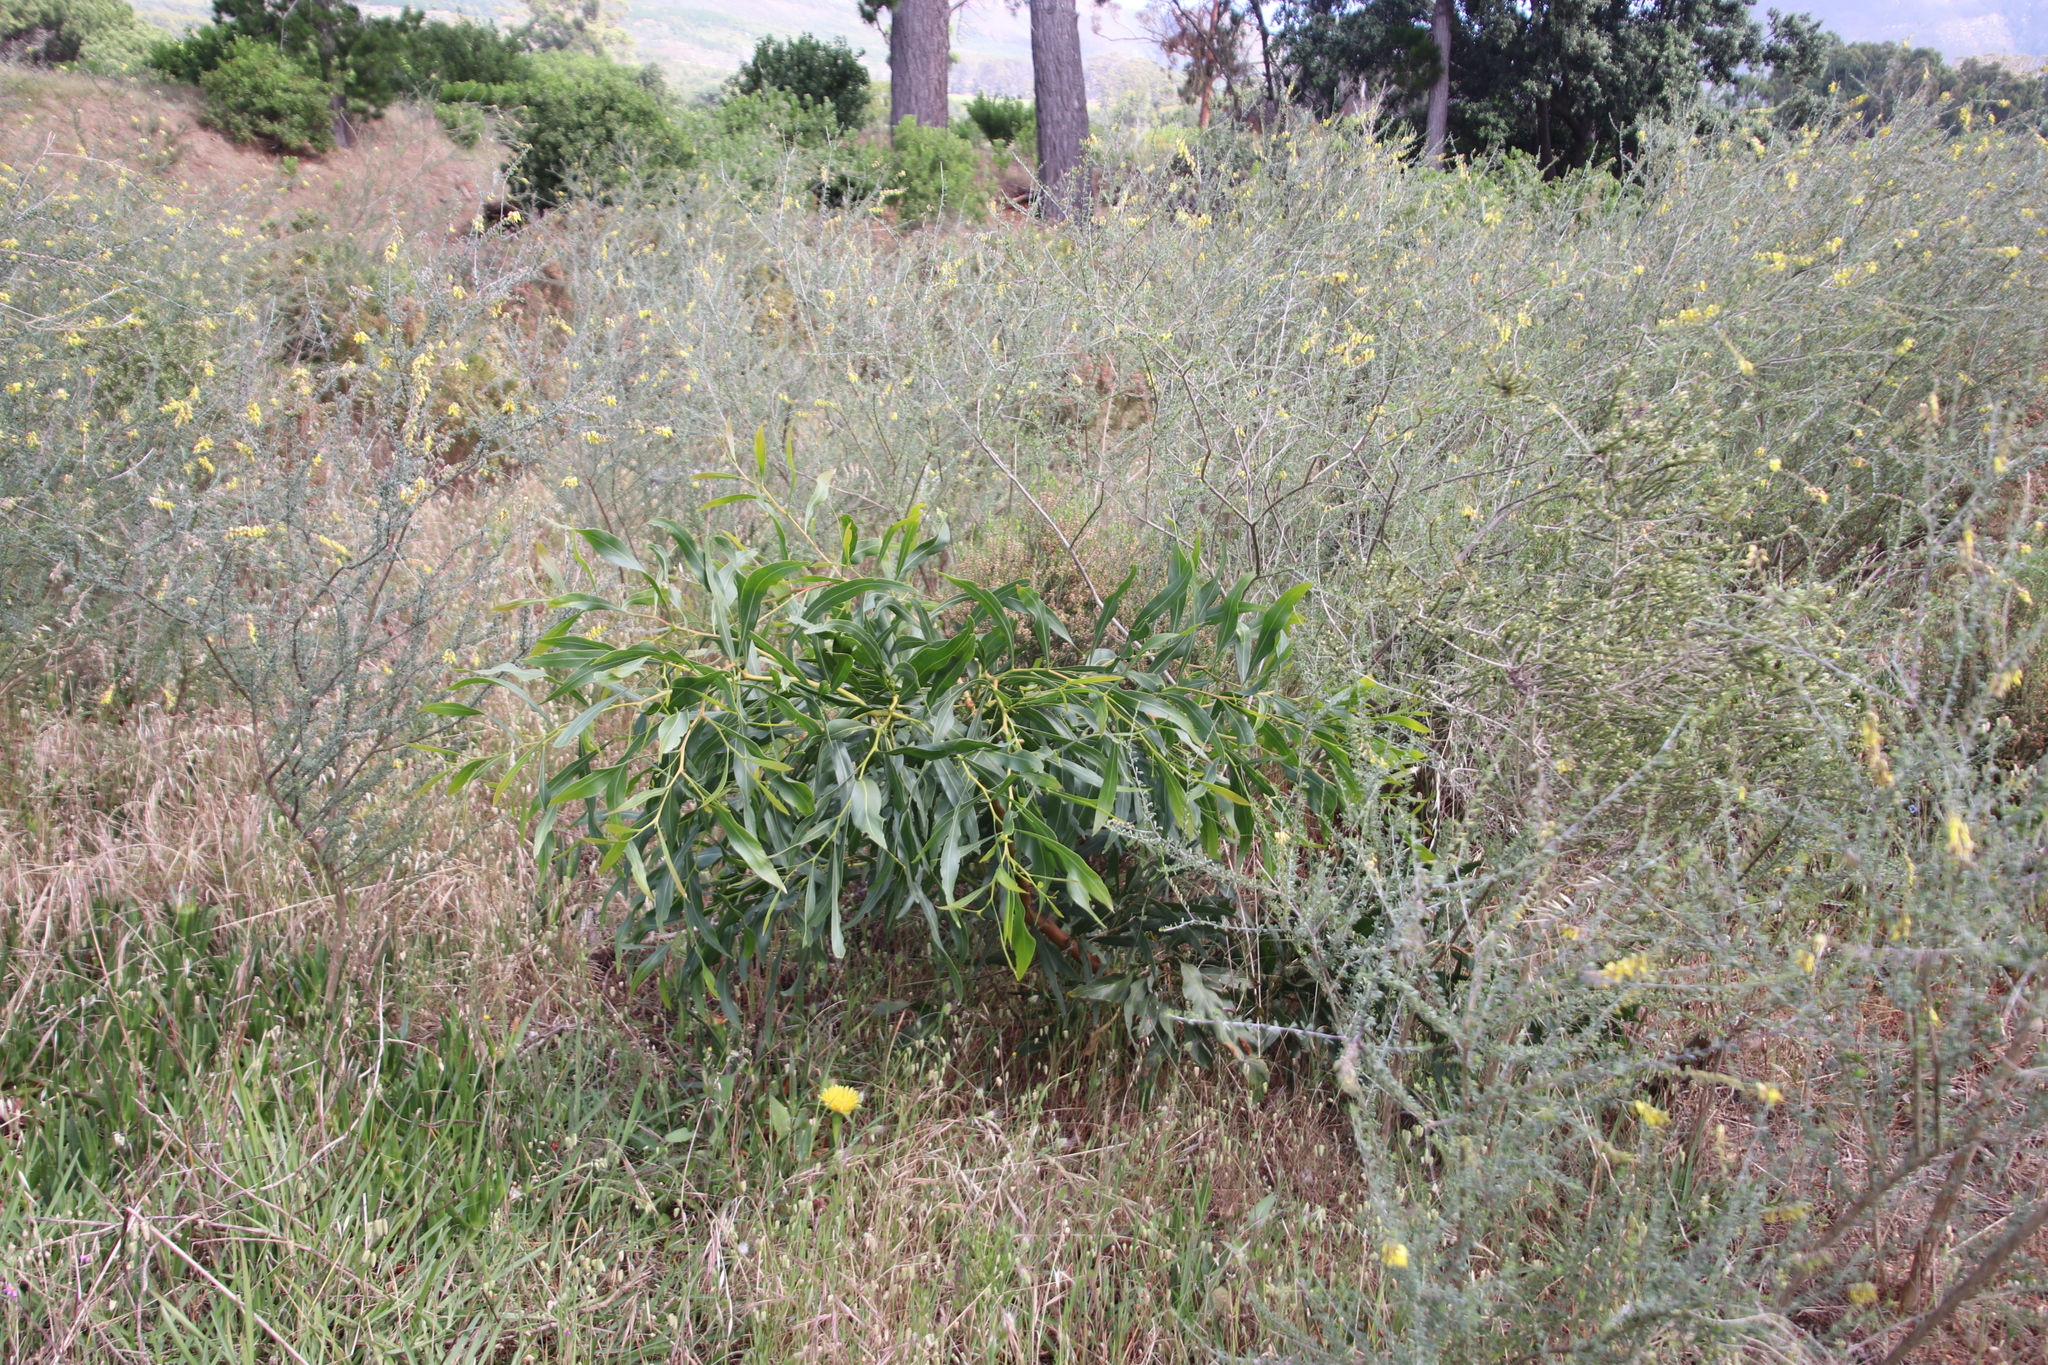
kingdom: Plantae
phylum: Tracheophyta
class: Magnoliopsida
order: Fabales
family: Fabaceae
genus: Acacia
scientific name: Acacia saligna
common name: Orange wattle
